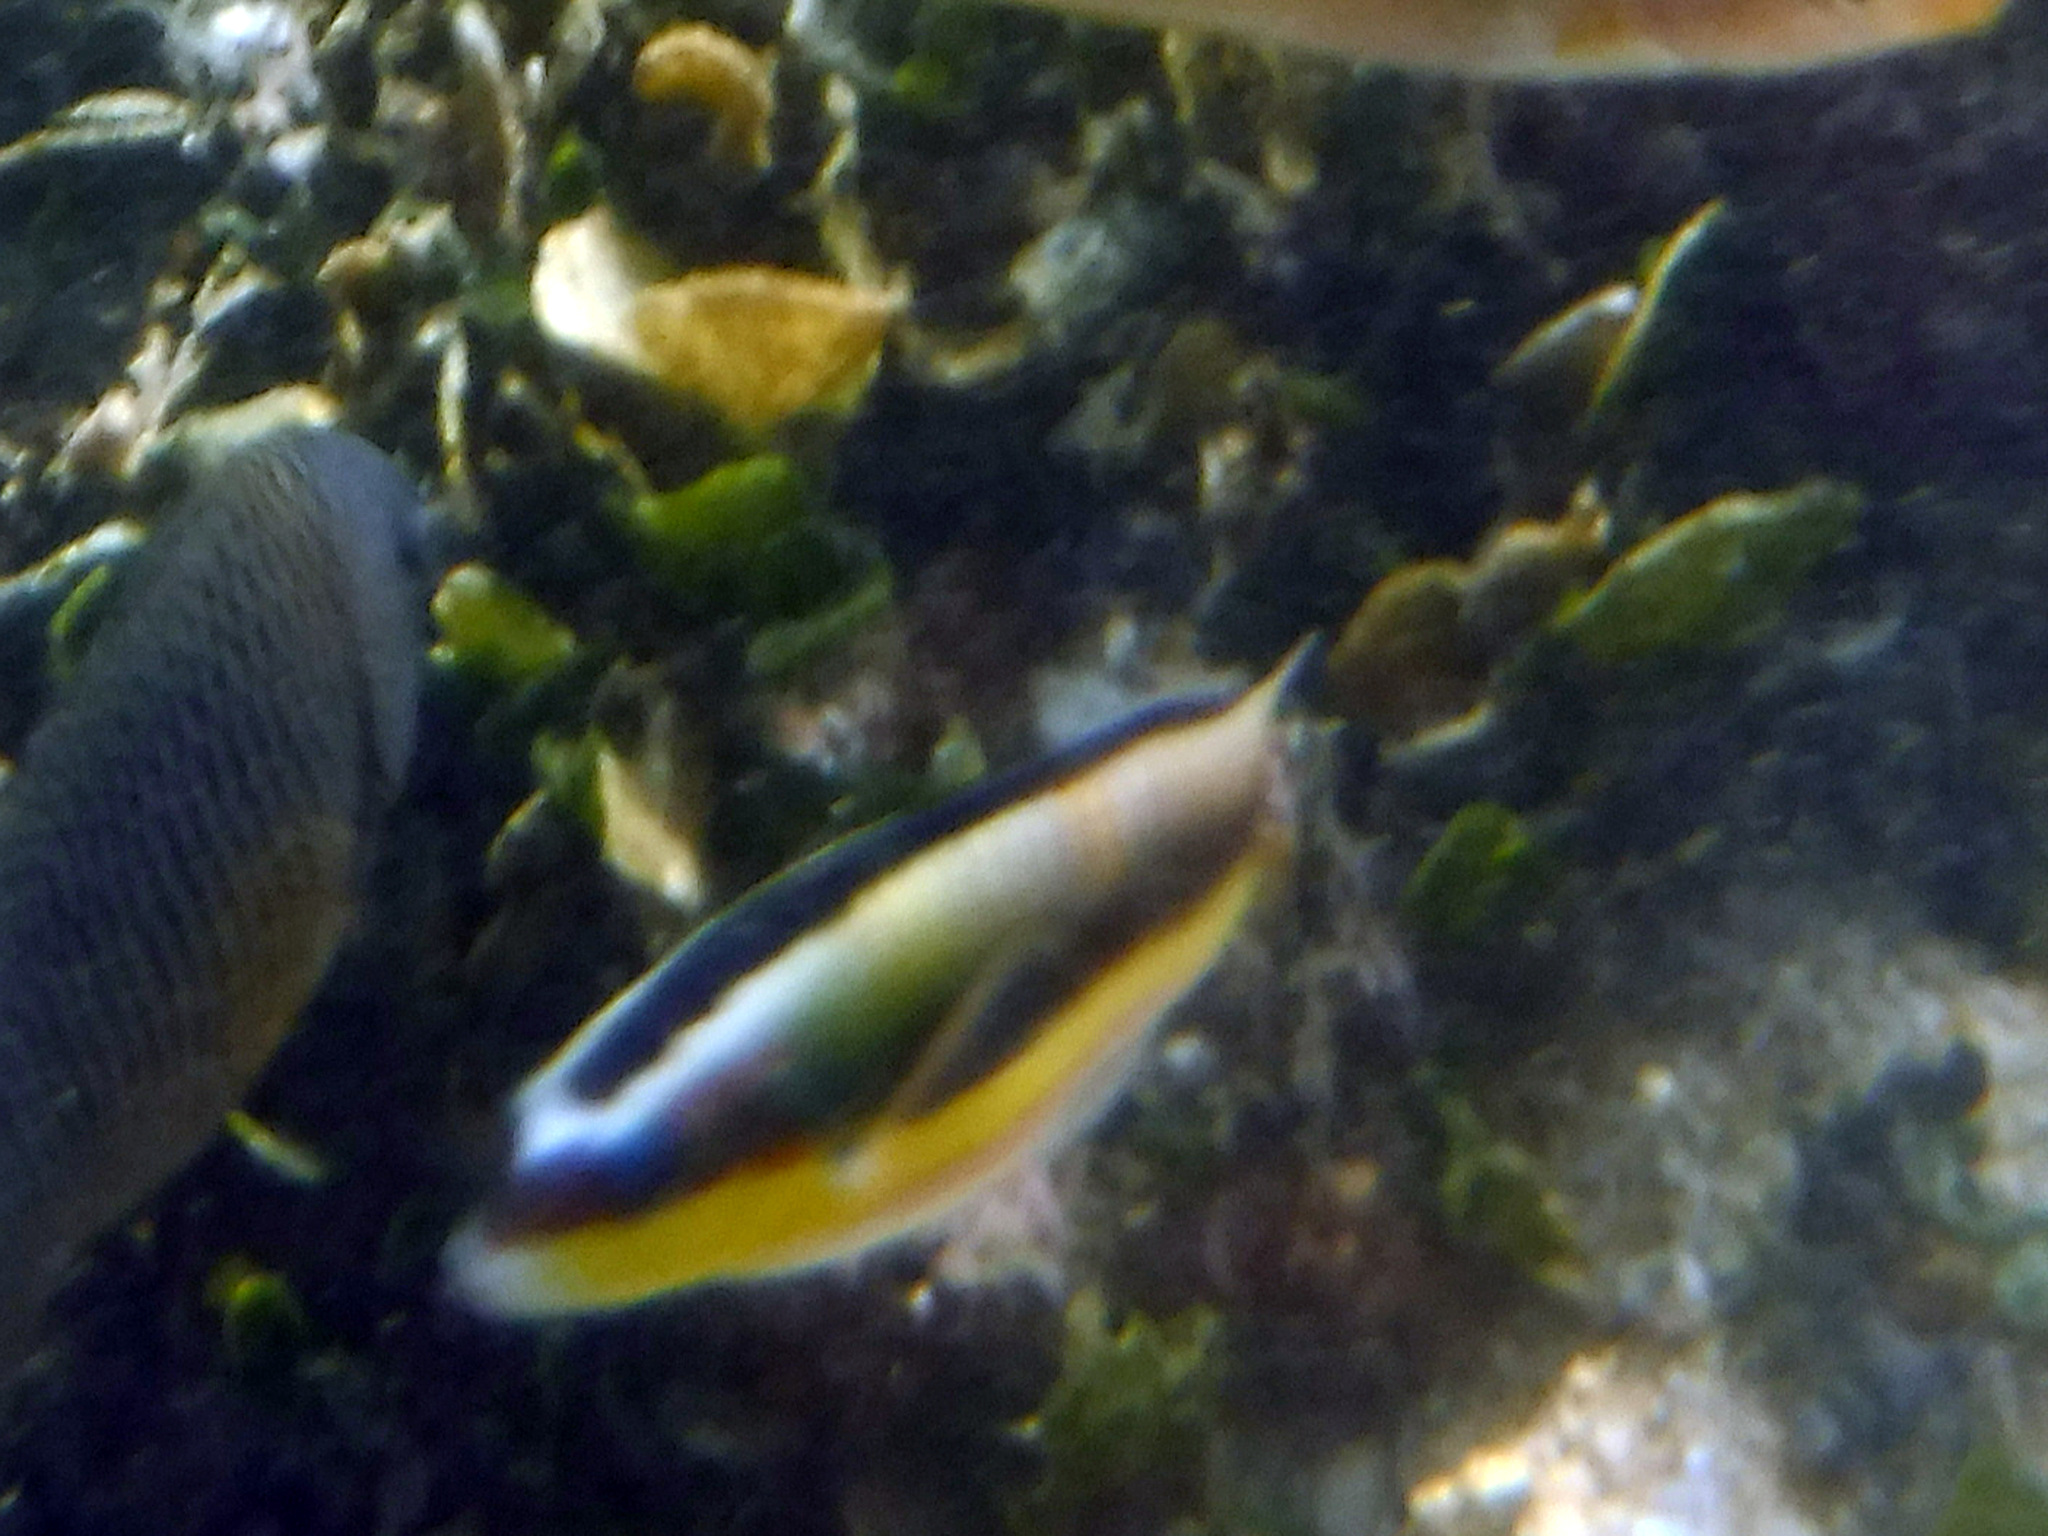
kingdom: Animalia
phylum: Chordata
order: Perciformes
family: Labridae
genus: Thalassoma
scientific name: Thalassoma lucasanum
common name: Cortez rainbow wrasse
